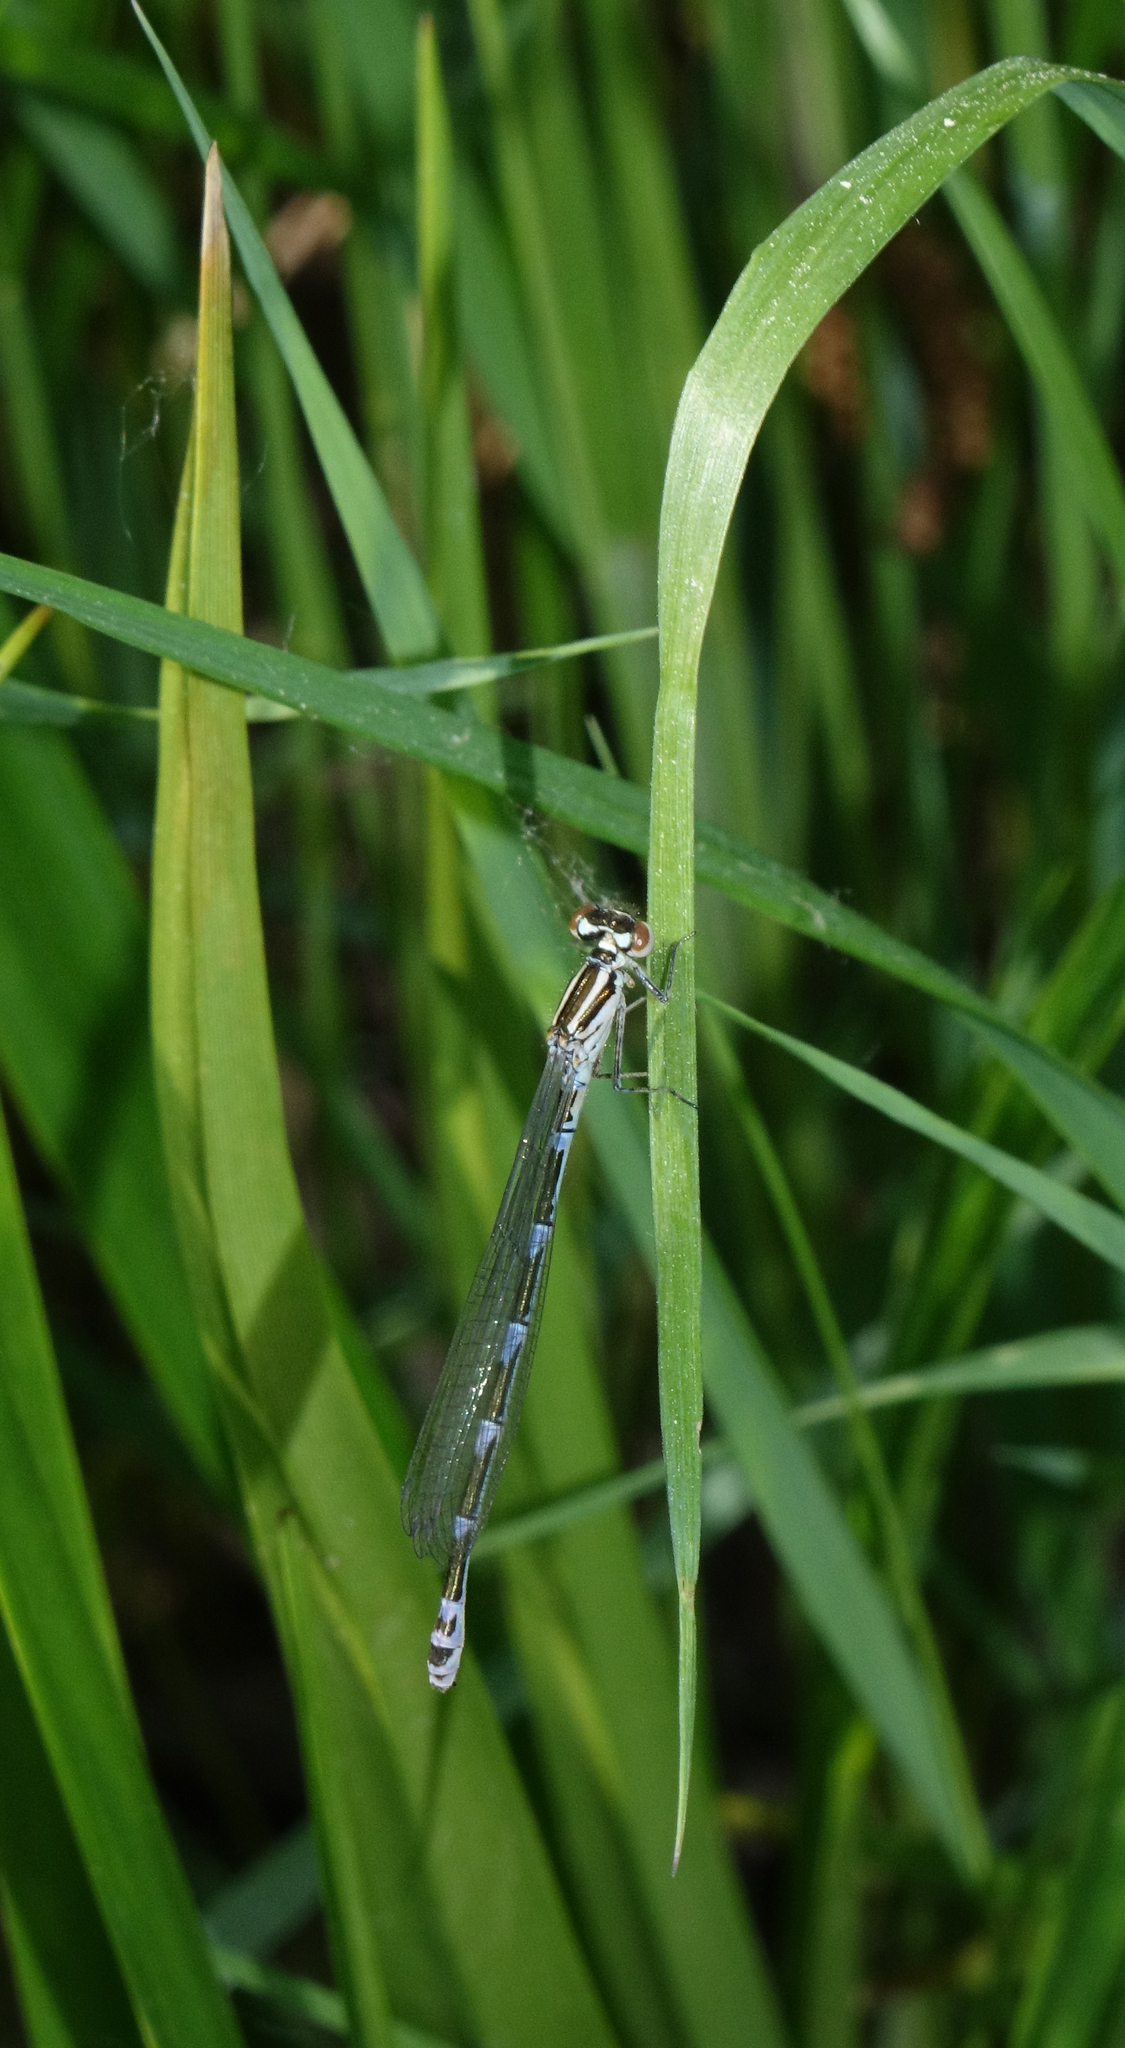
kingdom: Animalia
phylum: Arthropoda
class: Insecta
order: Odonata
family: Coenagrionidae
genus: Coenagrion
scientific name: Coenagrion puella
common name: Azure damselfly
